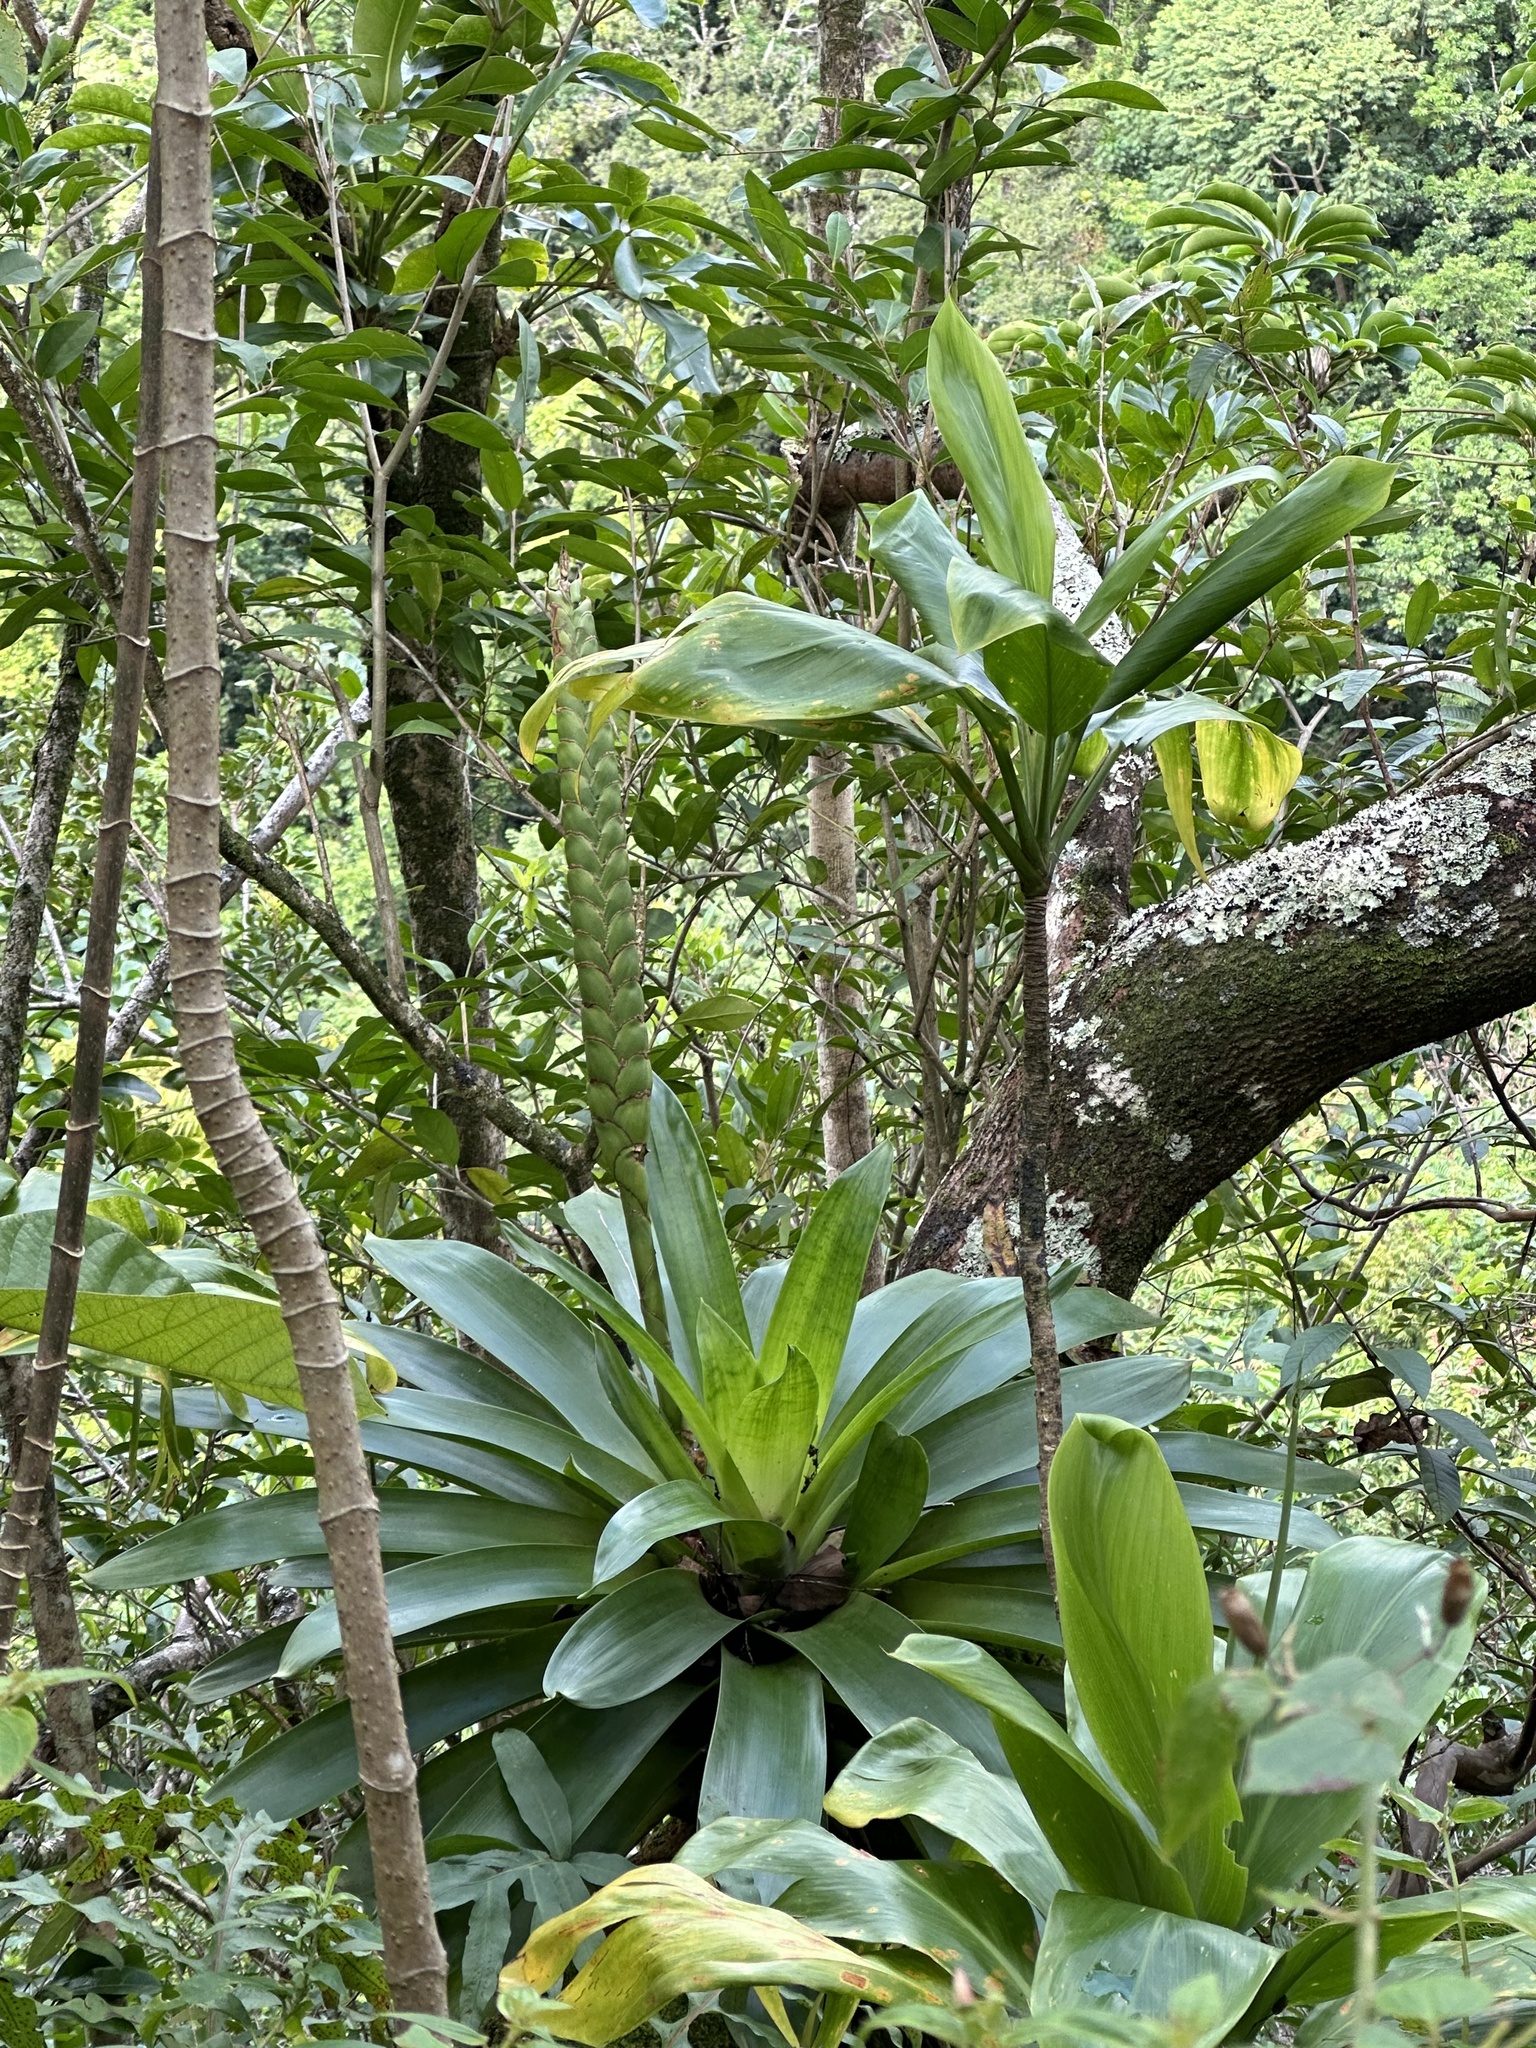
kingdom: Plantae
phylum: Tracheophyta
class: Liliopsida
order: Poales
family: Bromeliaceae
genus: Werauhia
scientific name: Werauhia gladioliflora
